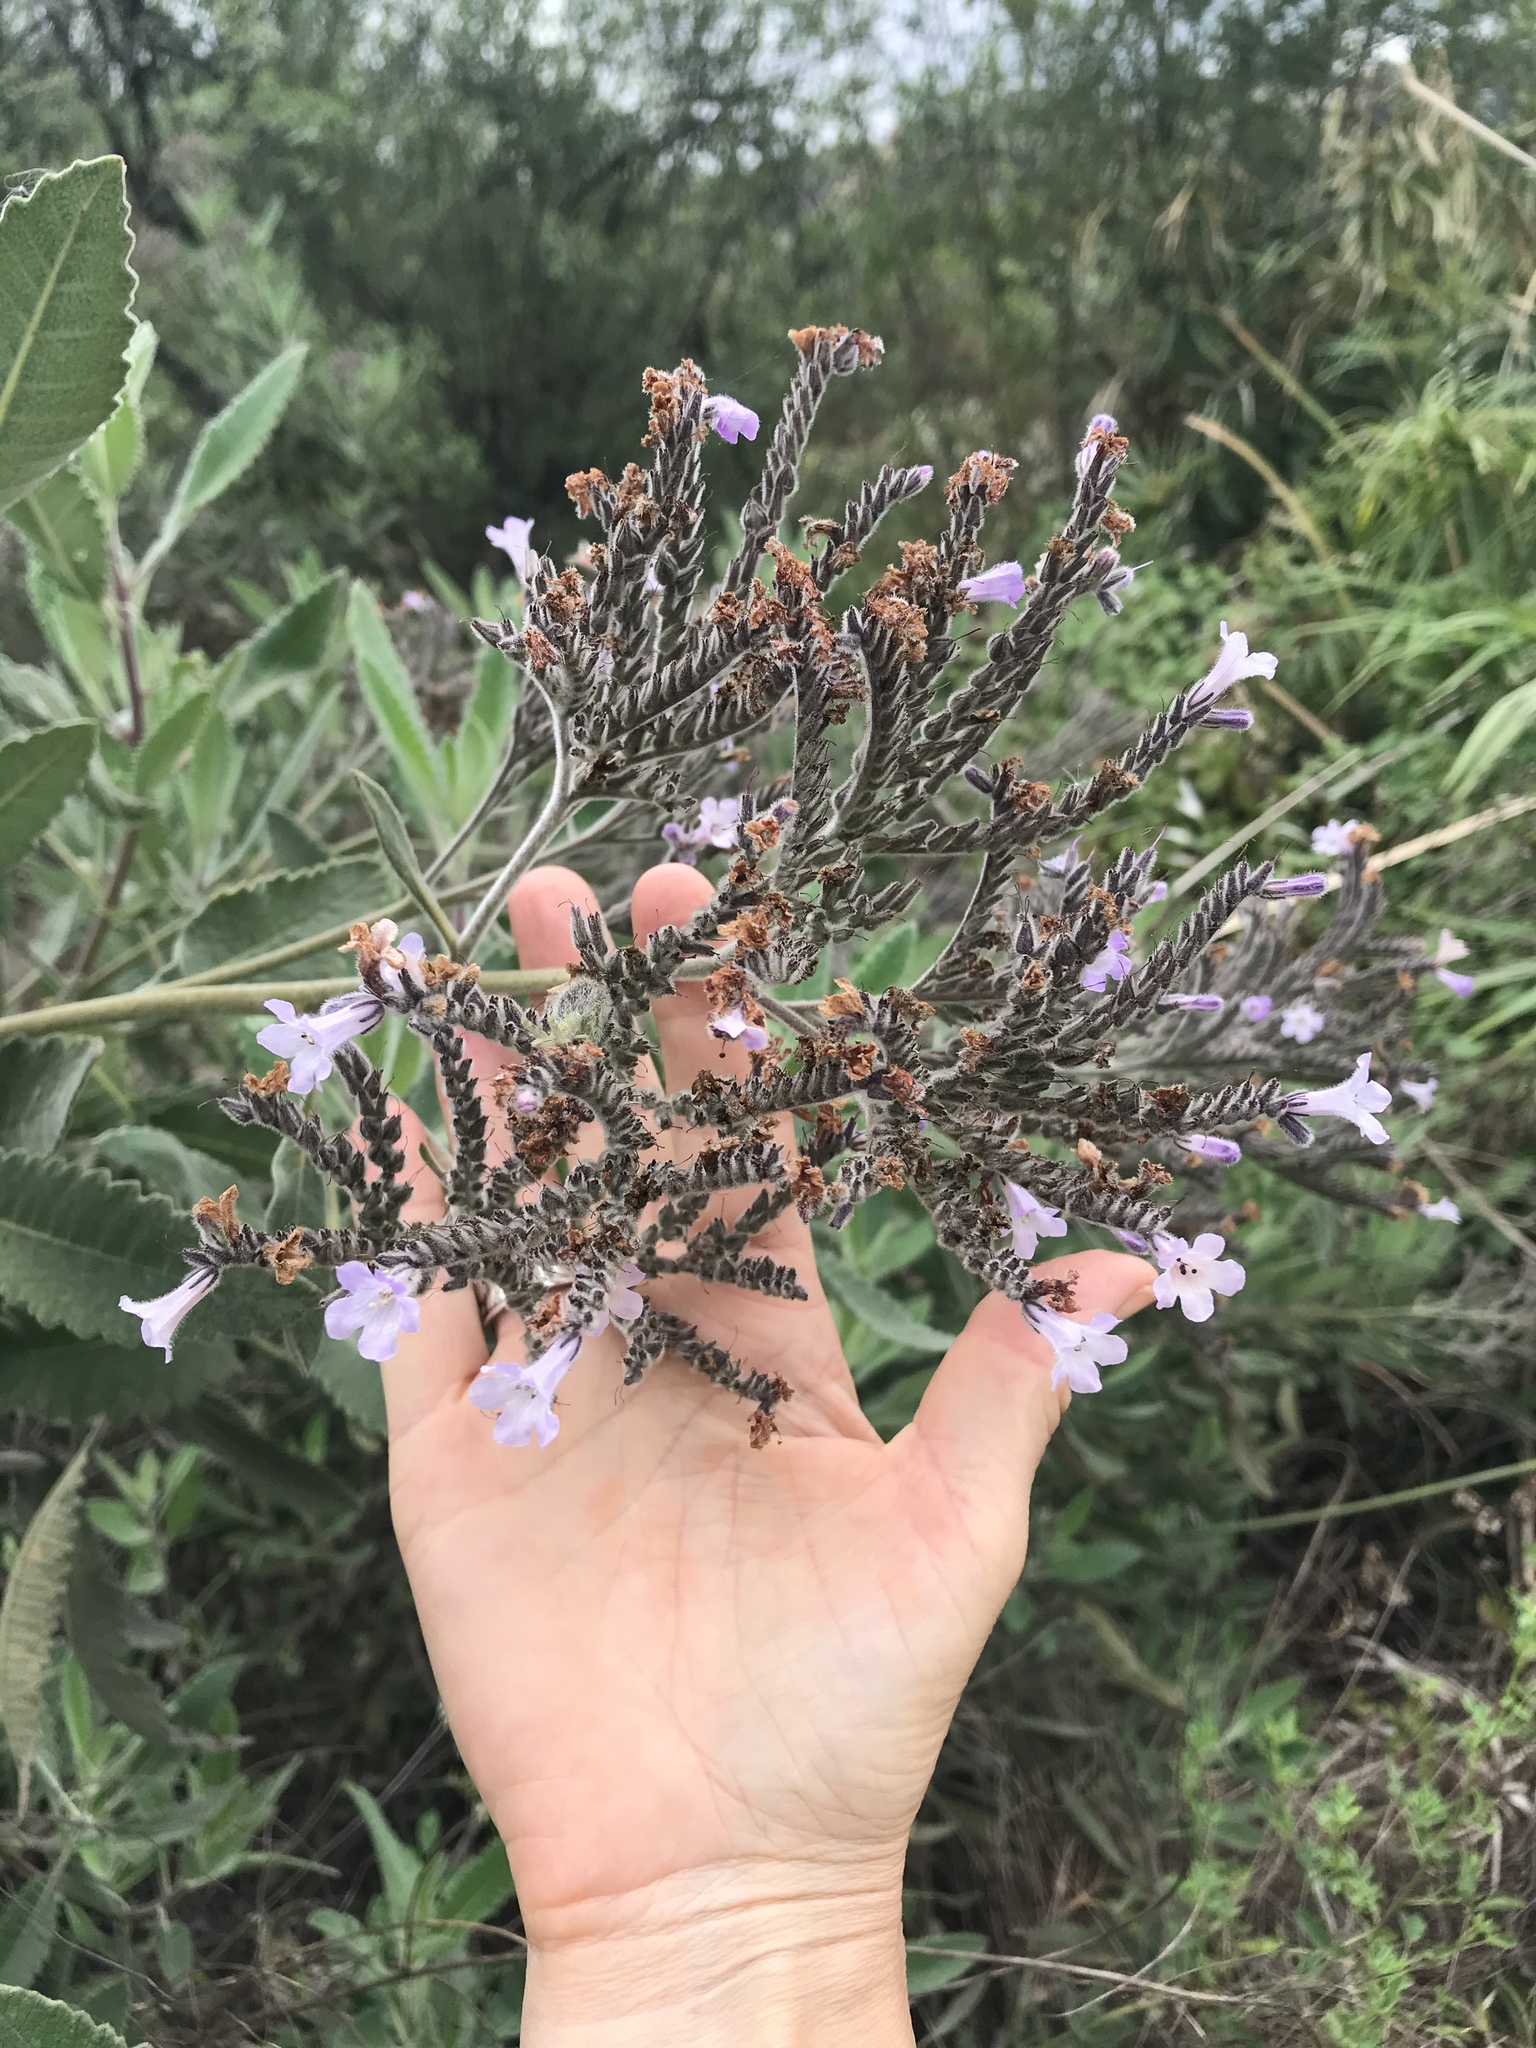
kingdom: Plantae
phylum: Tracheophyta
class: Magnoliopsida
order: Boraginales
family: Namaceae
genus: Eriodictyon
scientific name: Eriodictyon crassifolium
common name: Thick-leaf yerba-santa
